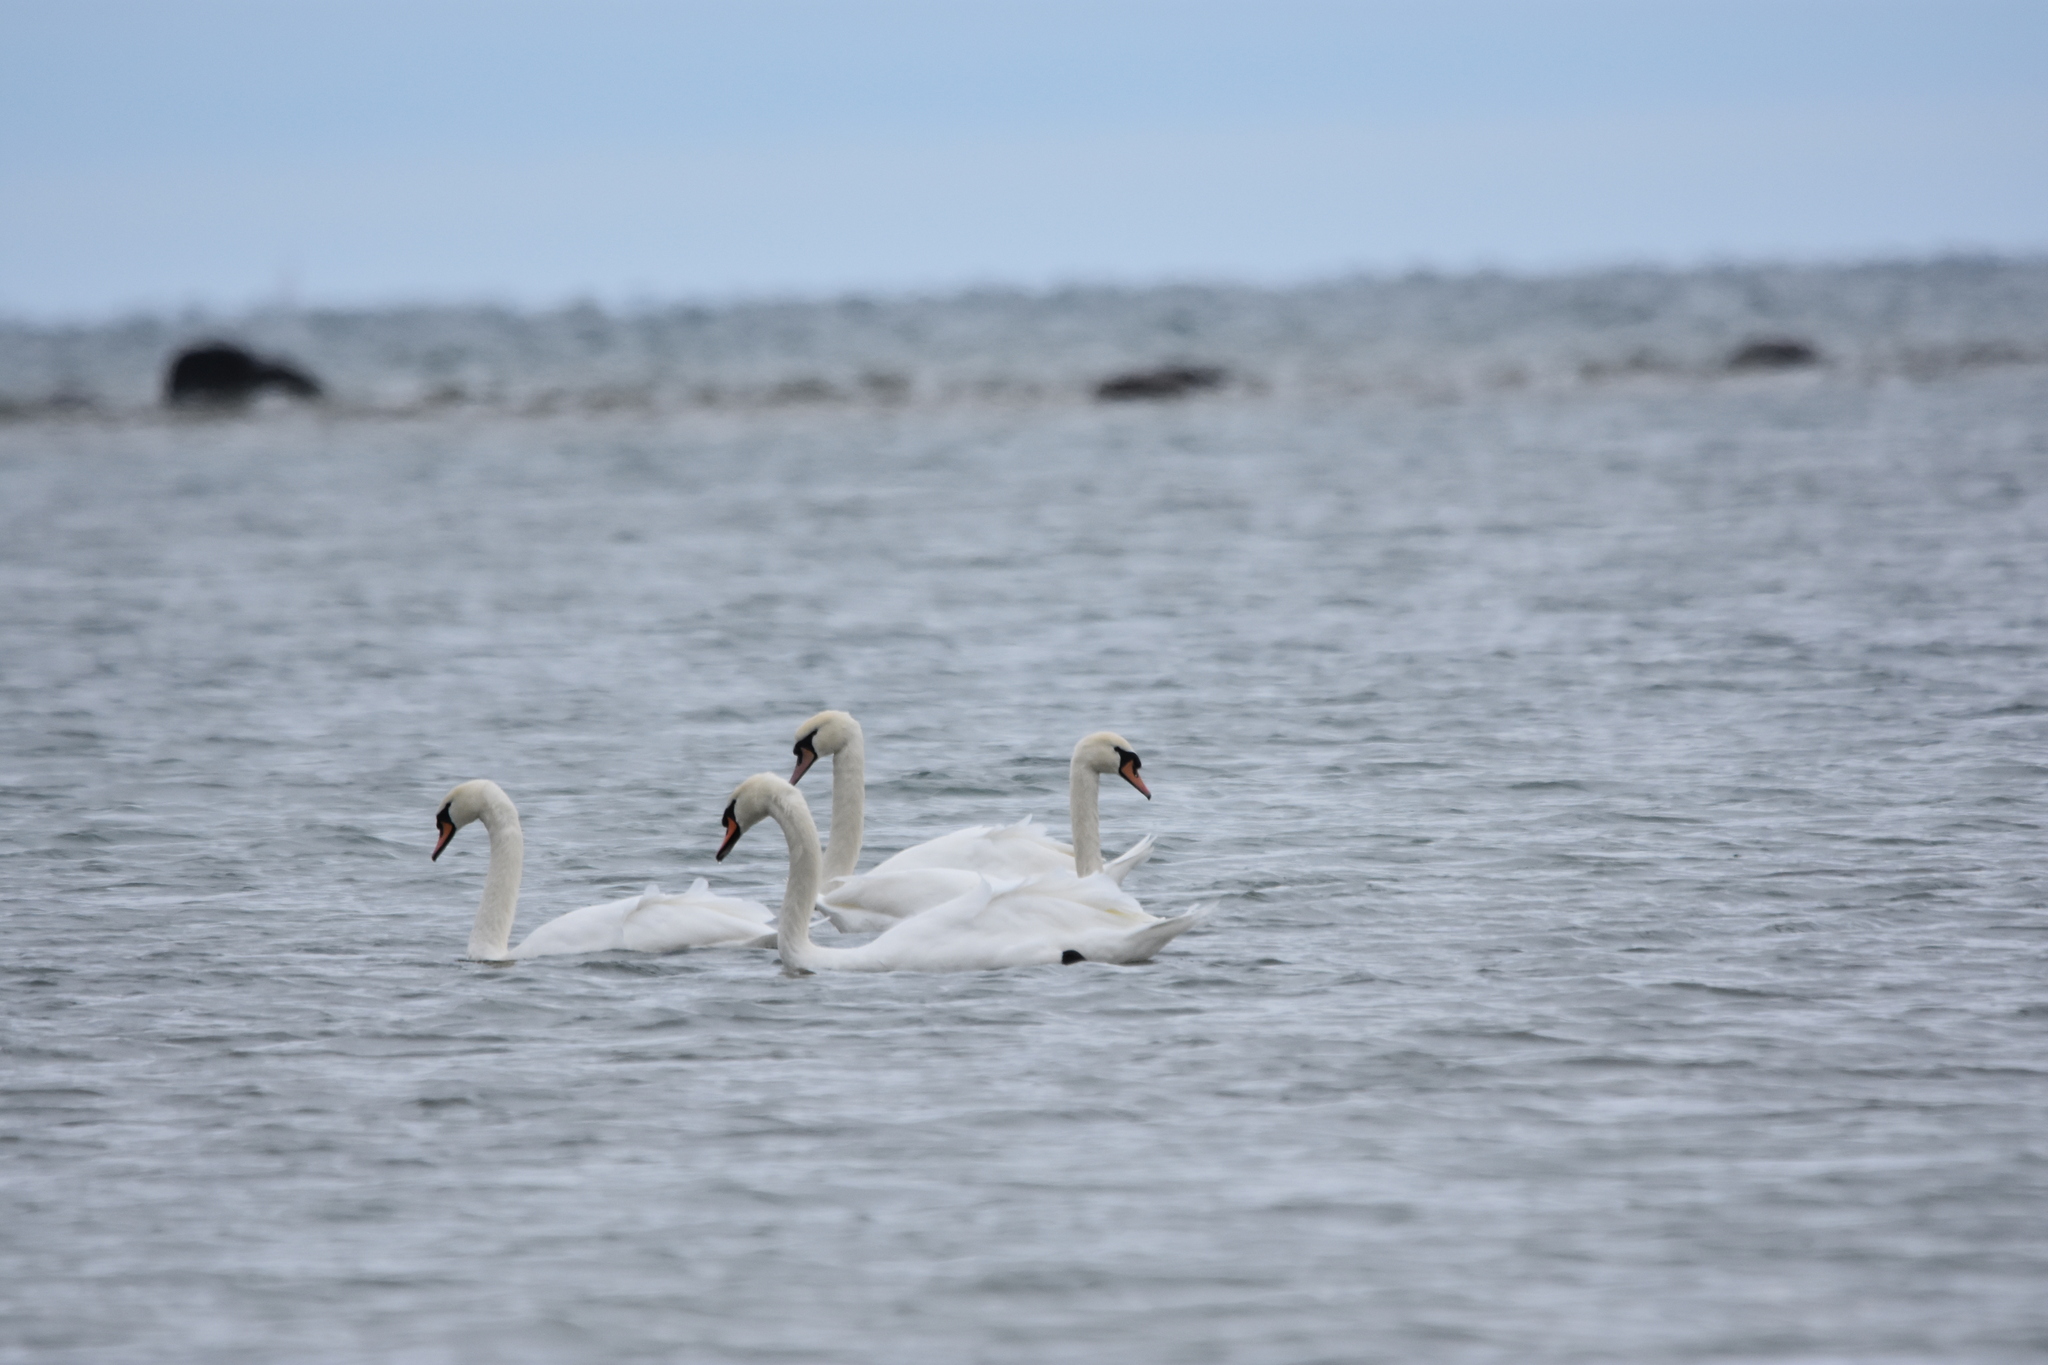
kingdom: Animalia
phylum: Chordata
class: Aves
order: Anseriformes
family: Anatidae
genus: Cygnus
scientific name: Cygnus olor
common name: Mute swan
